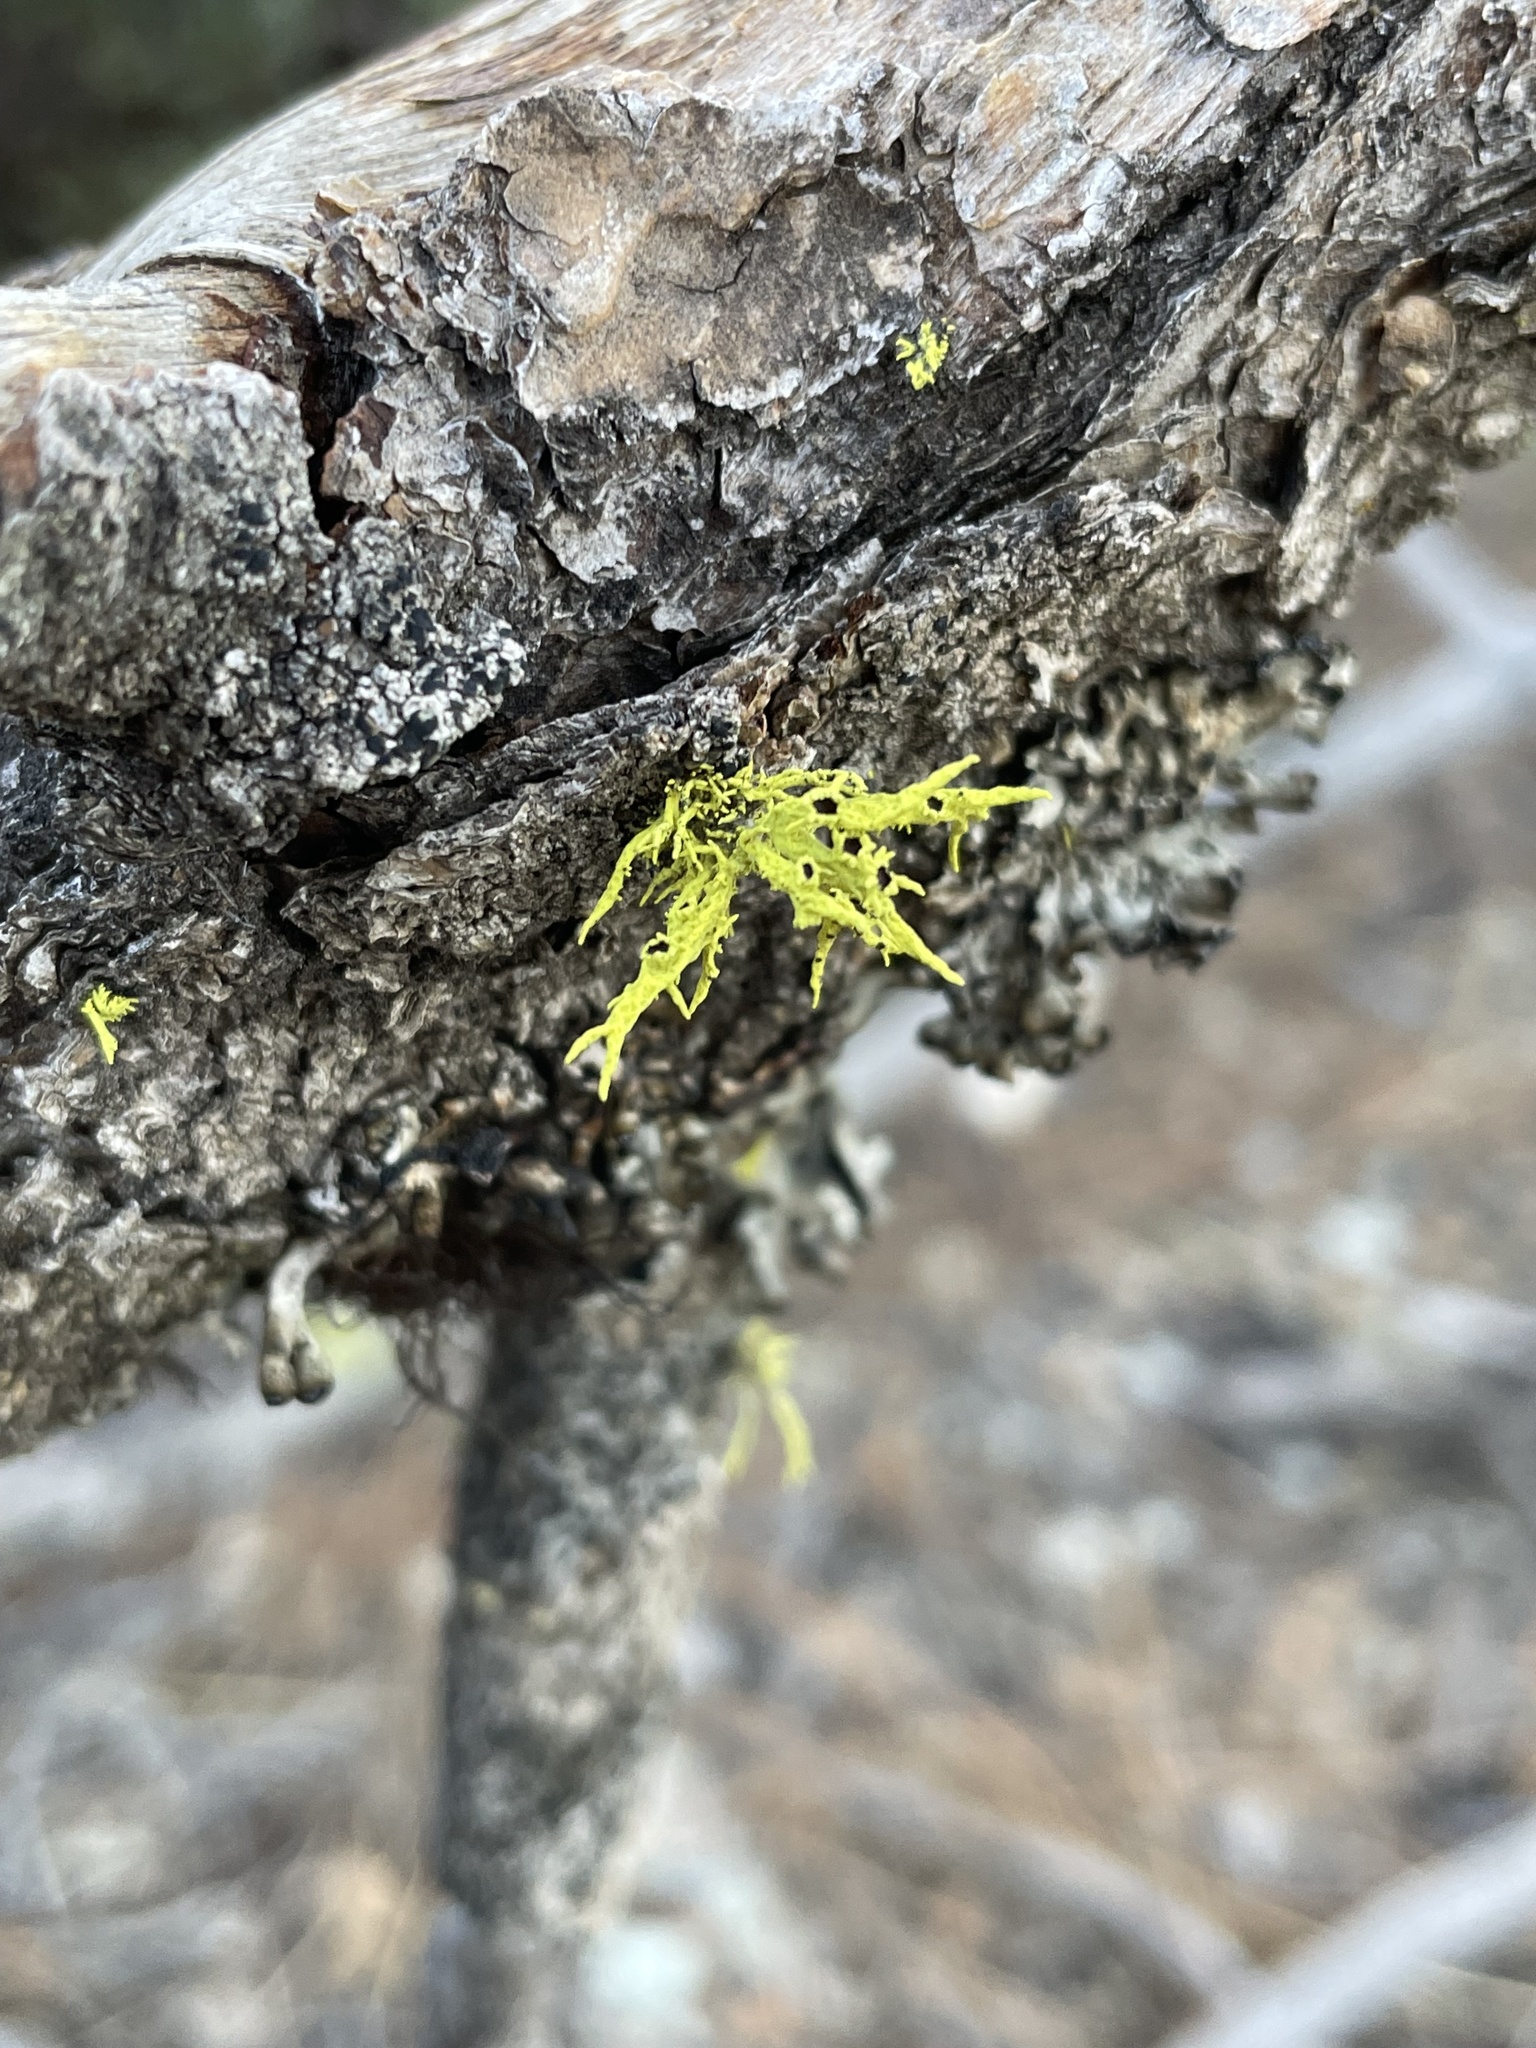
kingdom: Fungi
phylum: Ascomycota
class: Lecanoromycetes
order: Lecanorales
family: Parmeliaceae
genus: Letharia
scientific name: Letharia vulpina
